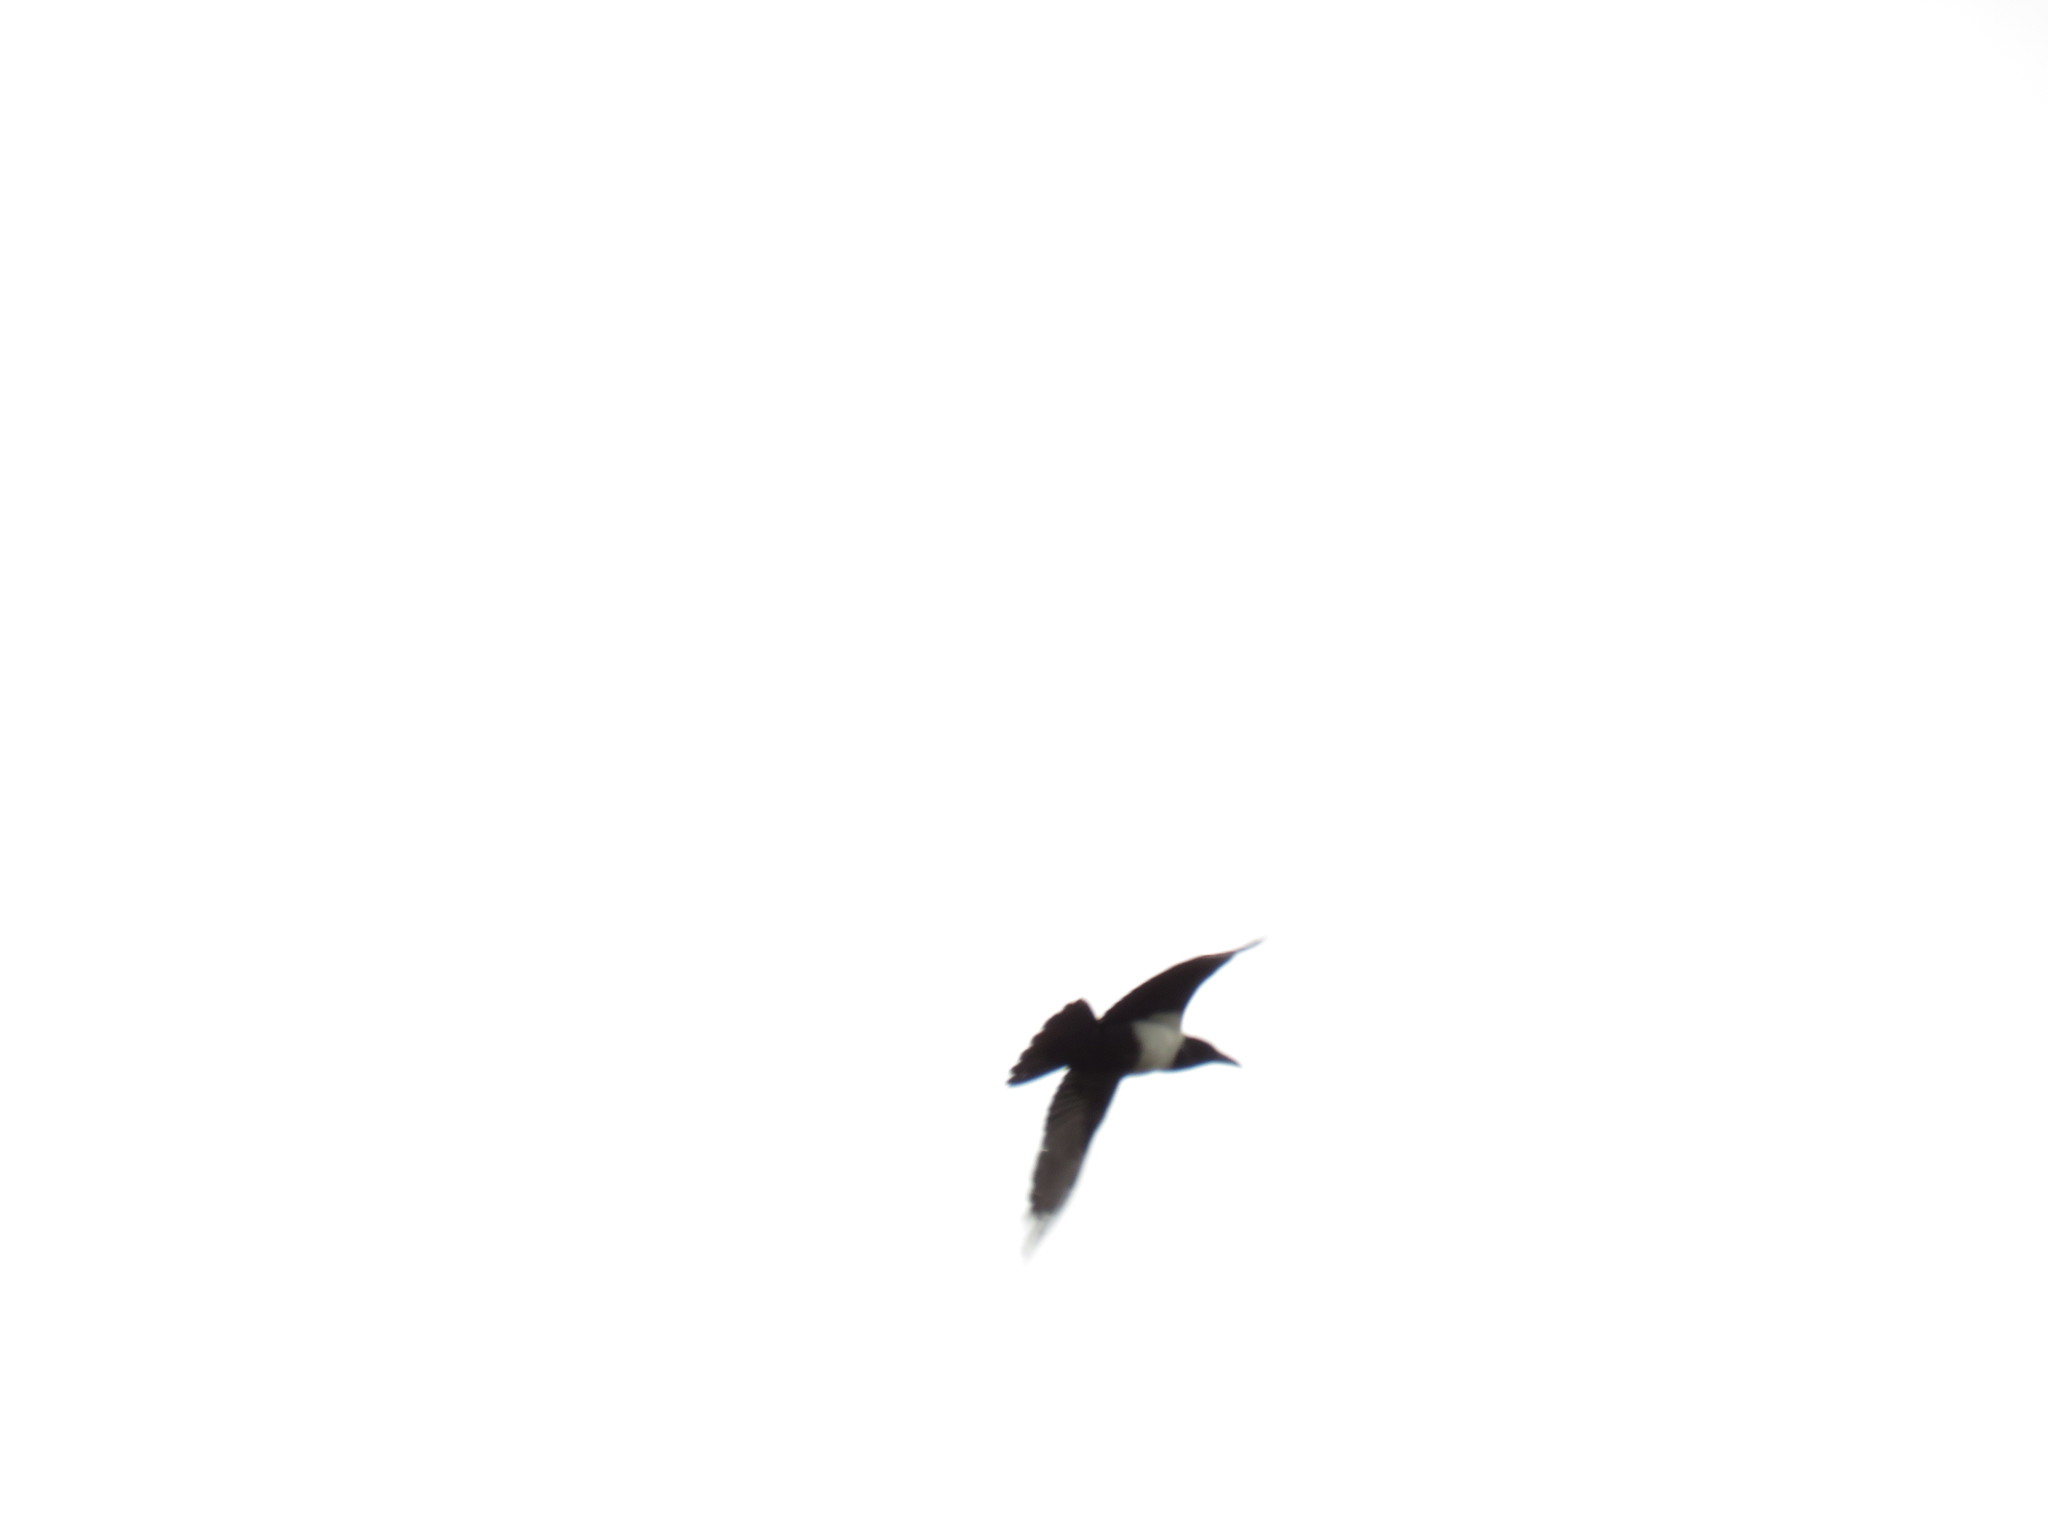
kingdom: Animalia
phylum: Chordata
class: Aves
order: Passeriformes
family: Corvidae
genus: Corvus
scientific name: Corvus albus
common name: Pied crow
